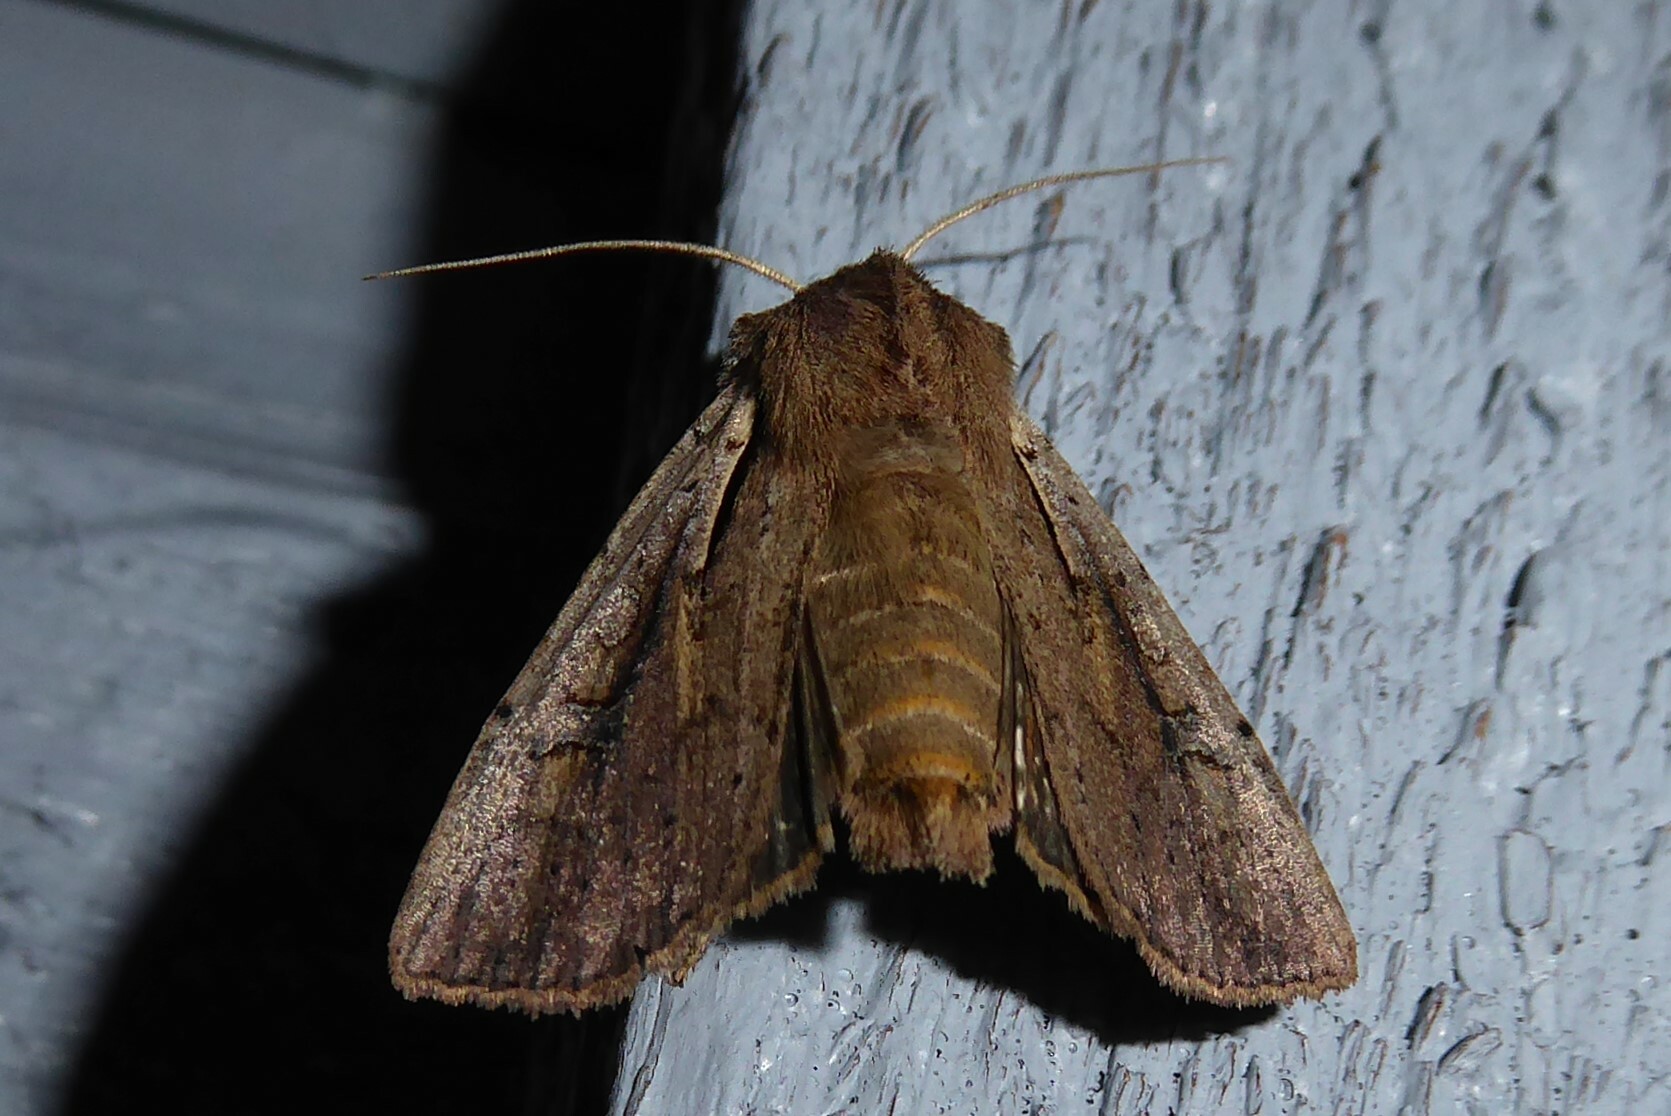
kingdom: Animalia
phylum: Arthropoda
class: Insecta
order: Lepidoptera
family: Noctuidae
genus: Ichneutica
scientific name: Ichneutica atristriga
